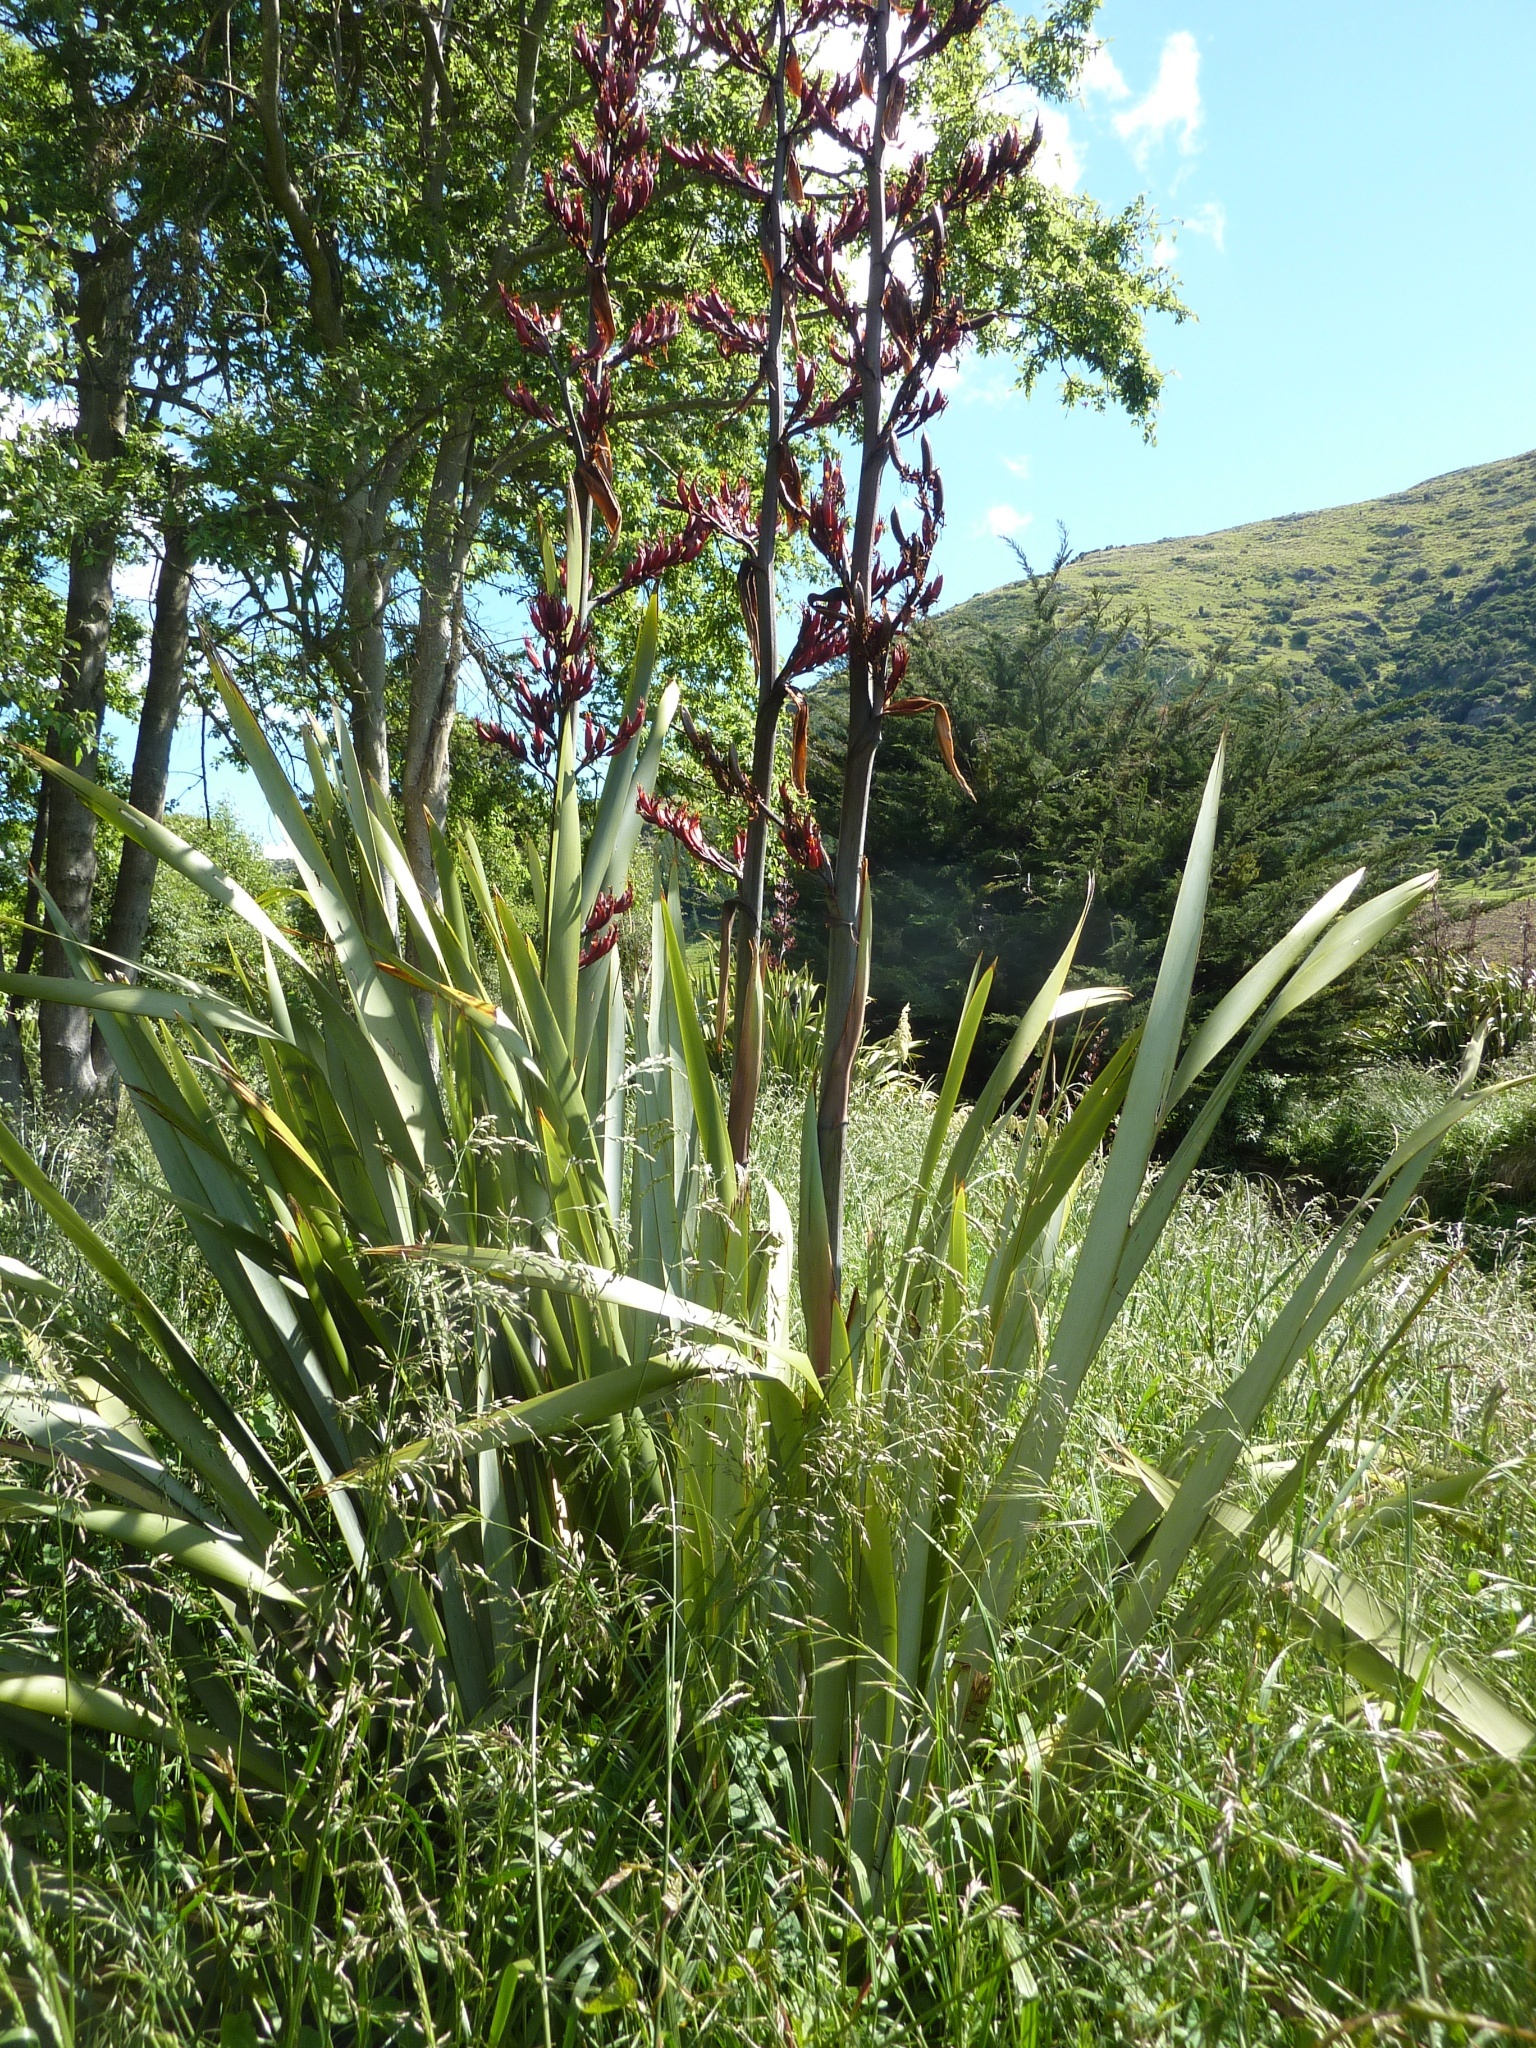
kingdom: Plantae
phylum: Tracheophyta
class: Liliopsida
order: Asparagales
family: Asphodelaceae
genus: Phormium
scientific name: Phormium tenax
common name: New zealand flax
